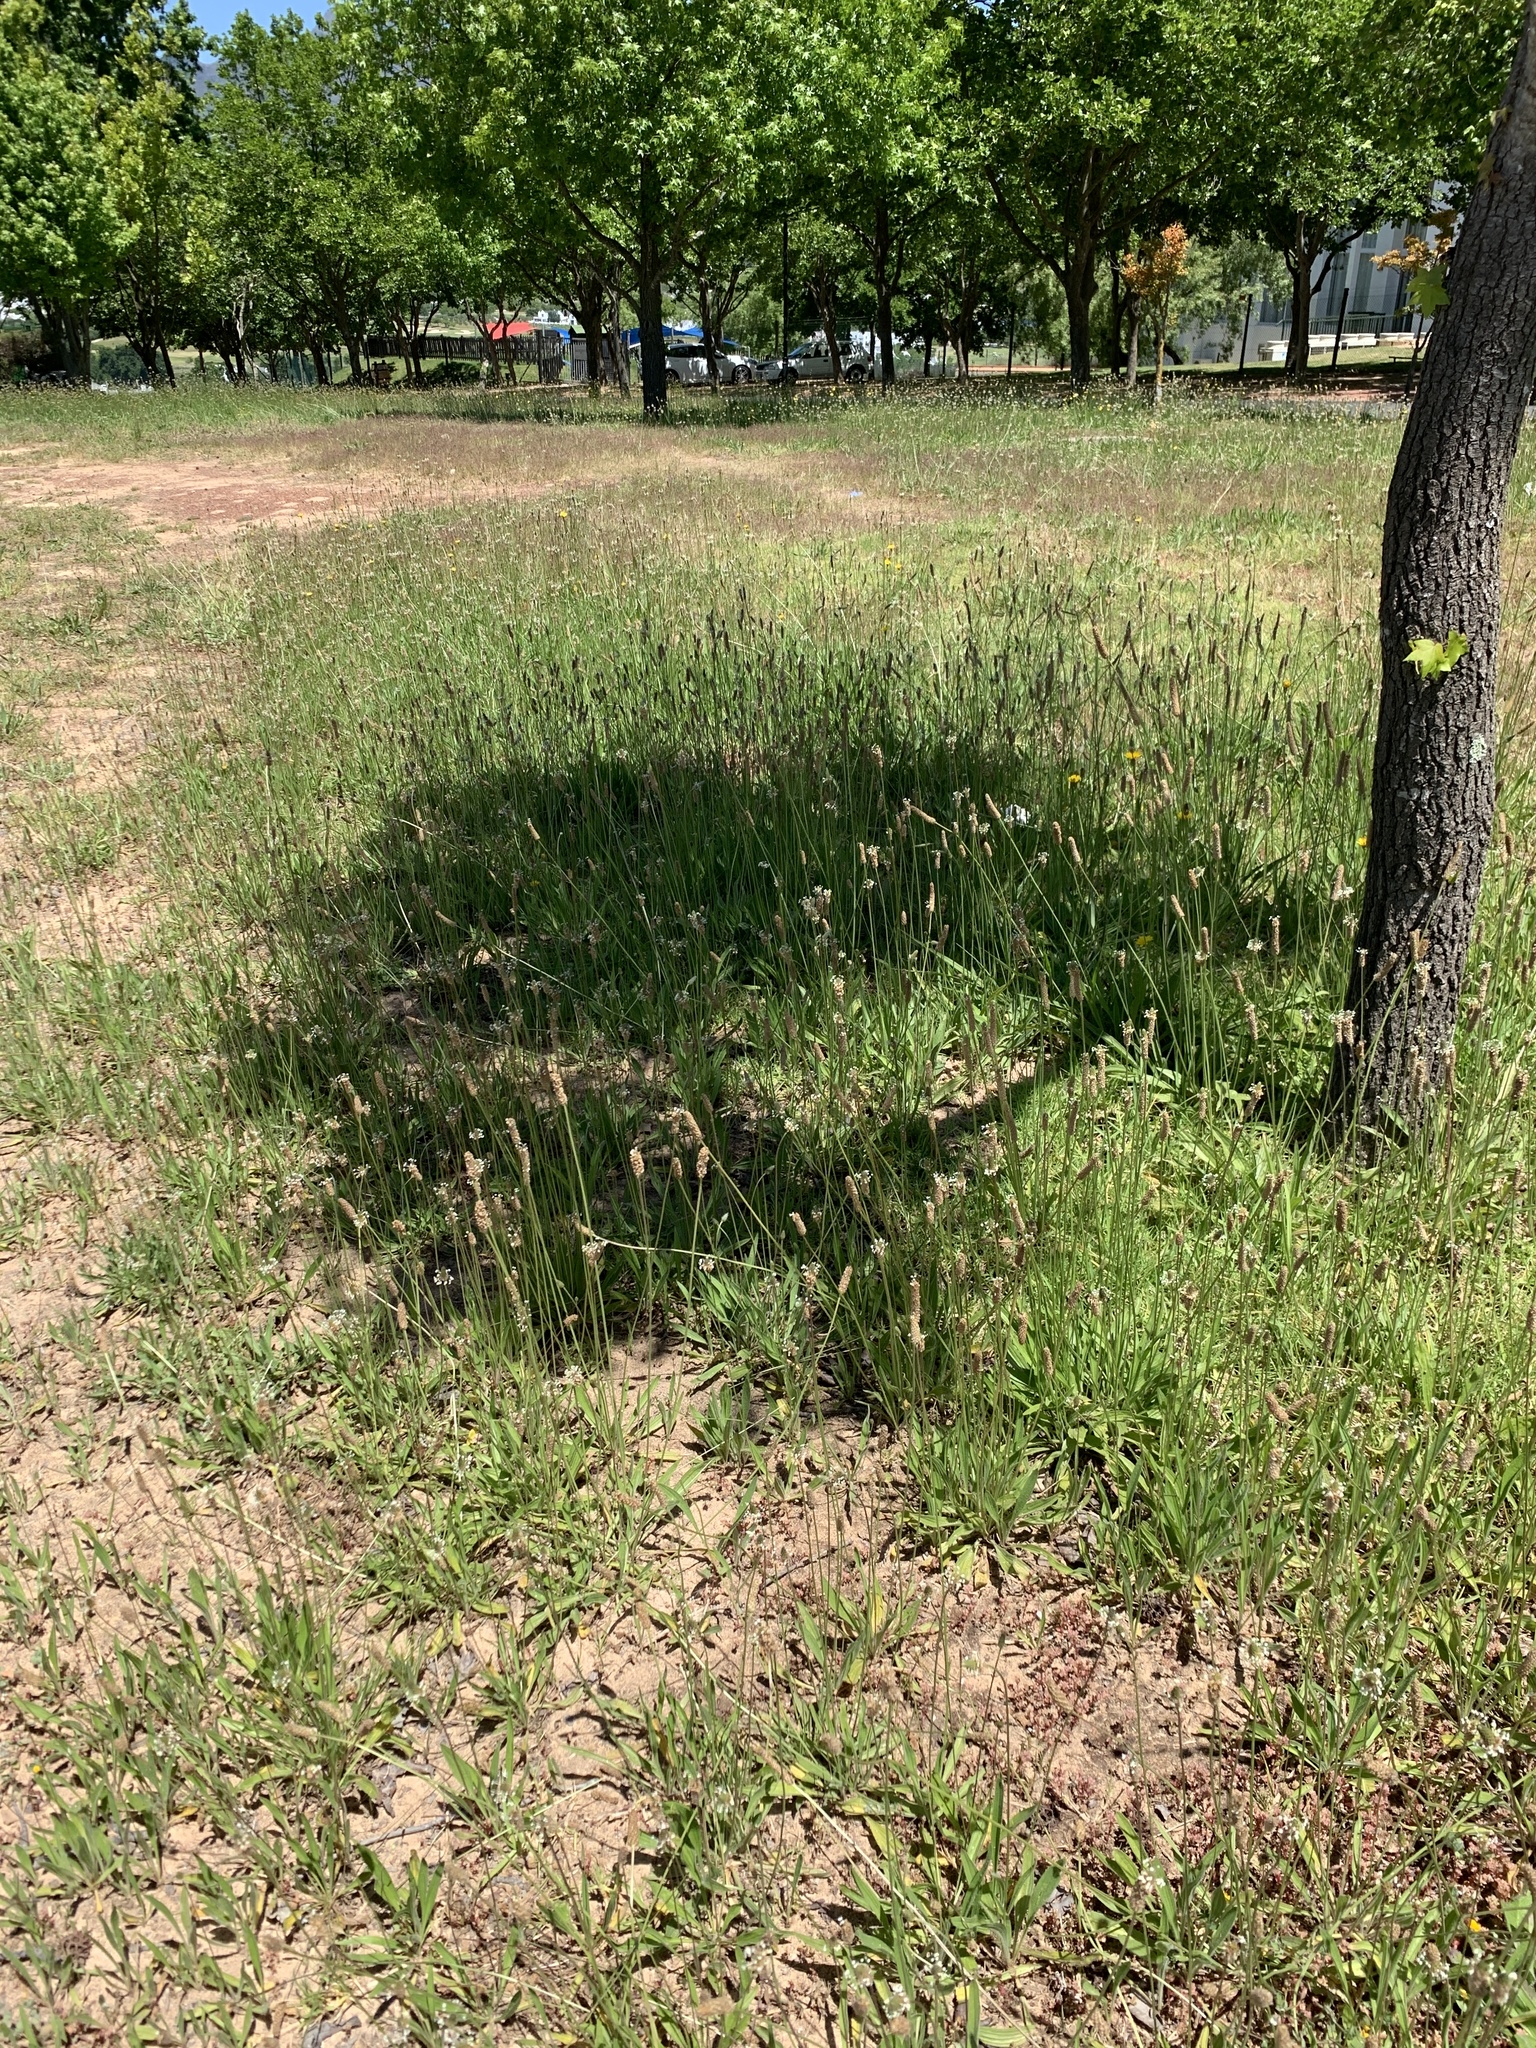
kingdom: Plantae
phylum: Tracheophyta
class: Magnoliopsida
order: Lamiales
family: Plantaginaceae
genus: Plantago
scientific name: Plantago lanceolata
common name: Ribwort plantain
